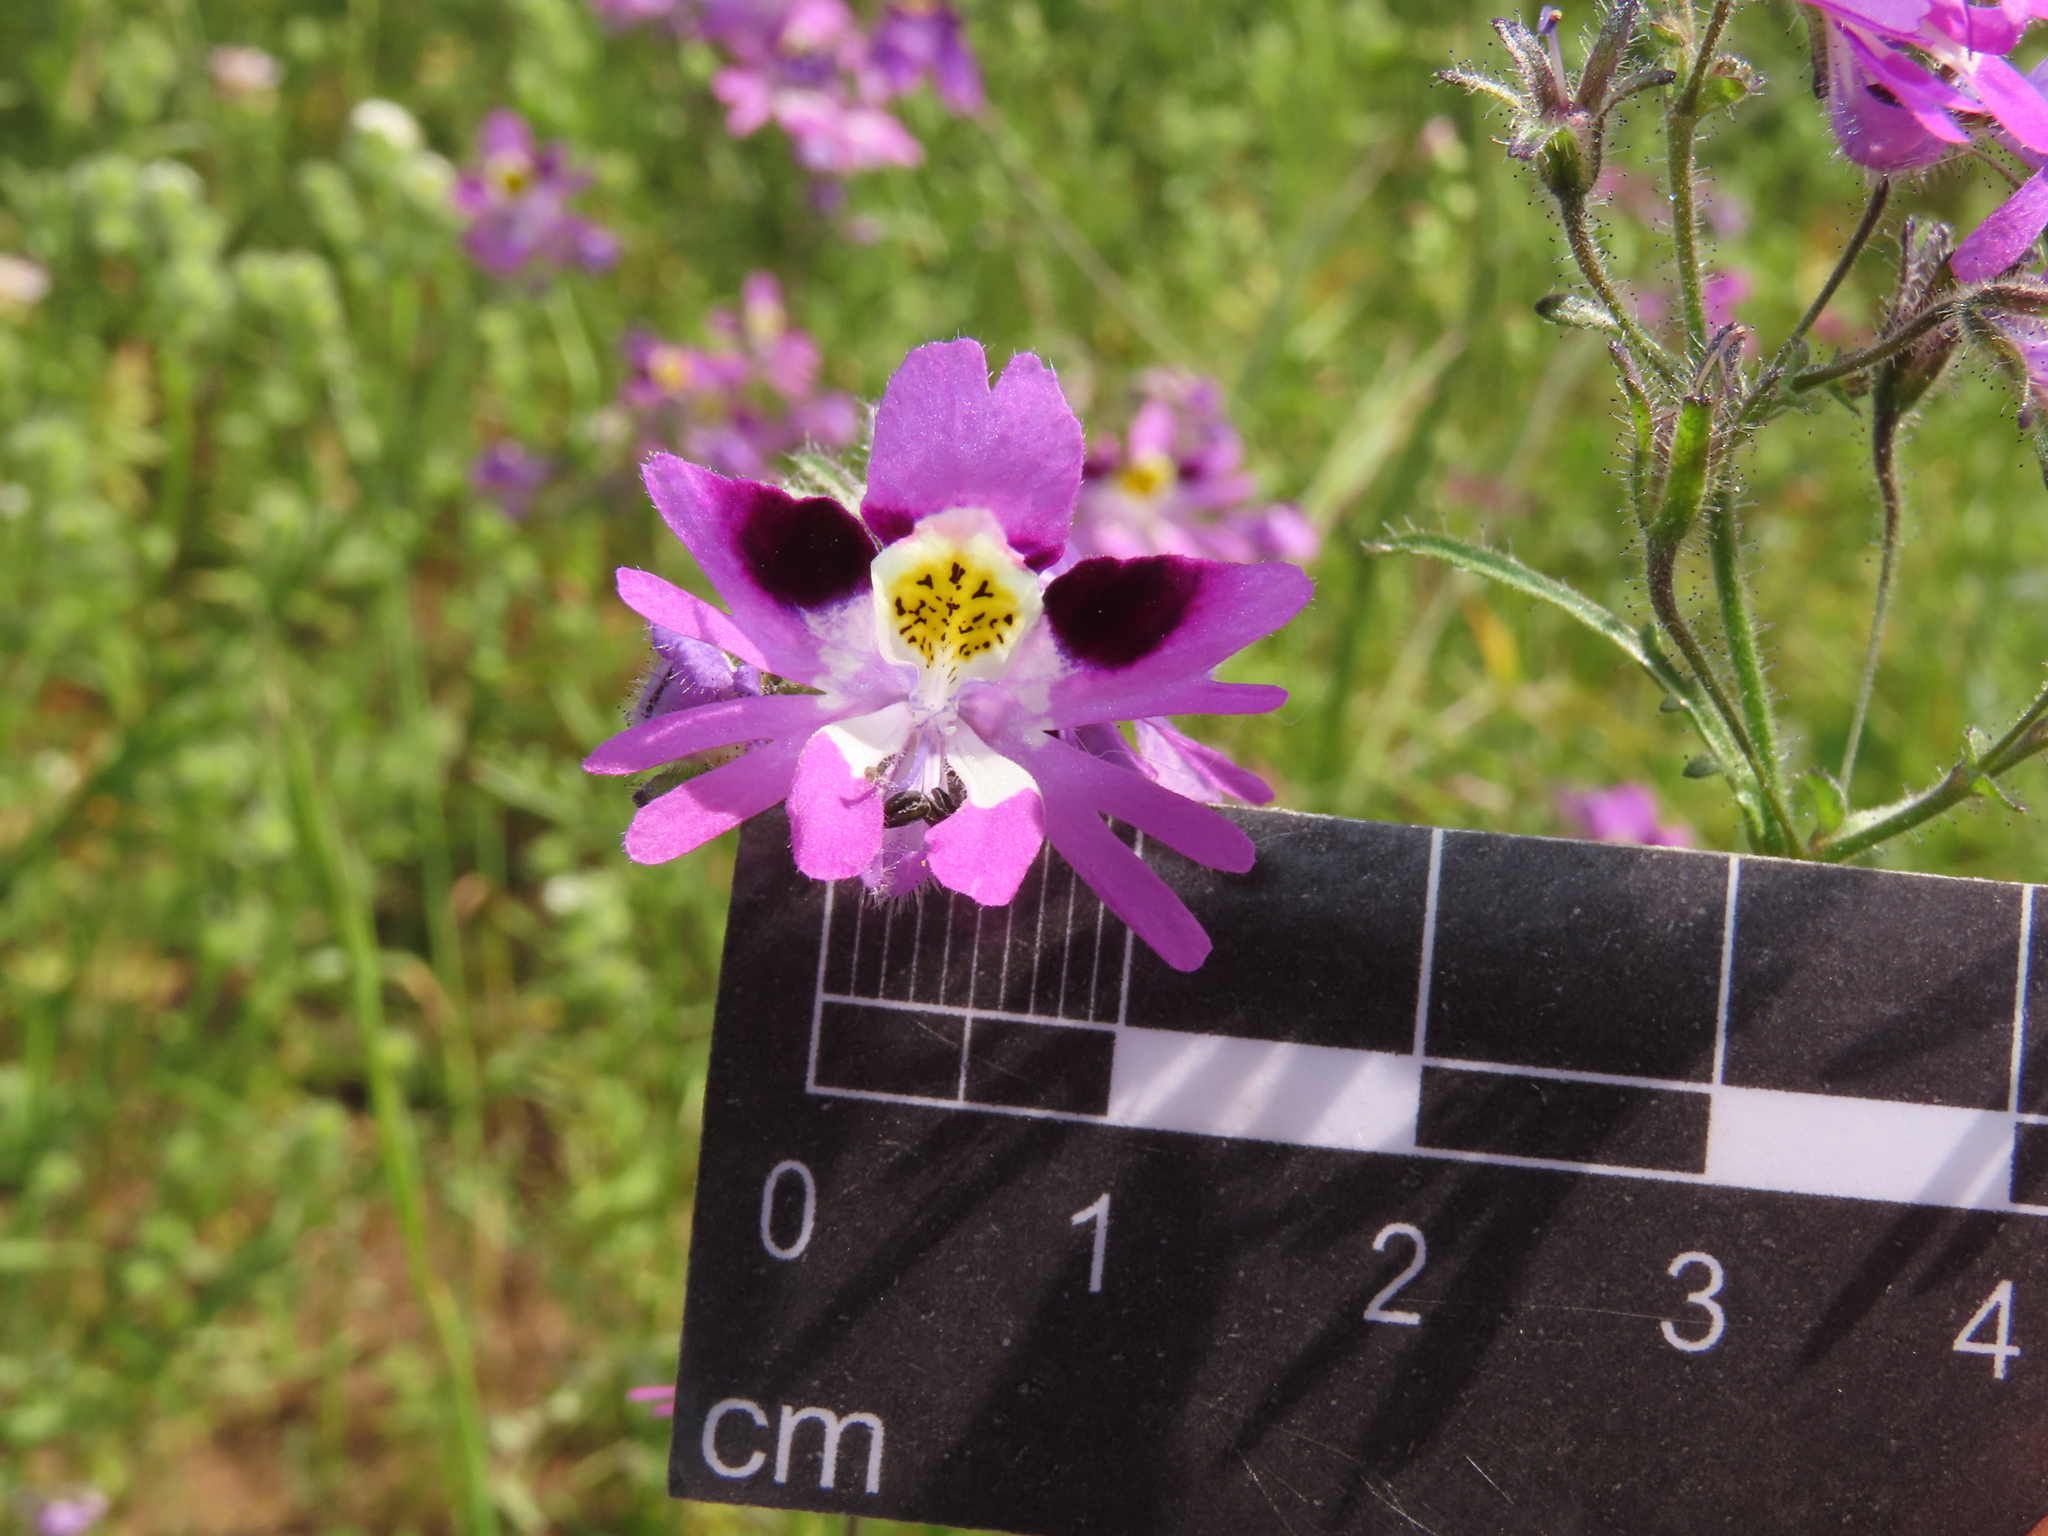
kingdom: Plantae
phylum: Tracheophyta
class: Magnoliopsida
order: Solanales
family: Solanaceae
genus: Schizanthus
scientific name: Schizanthus carlomunozii
